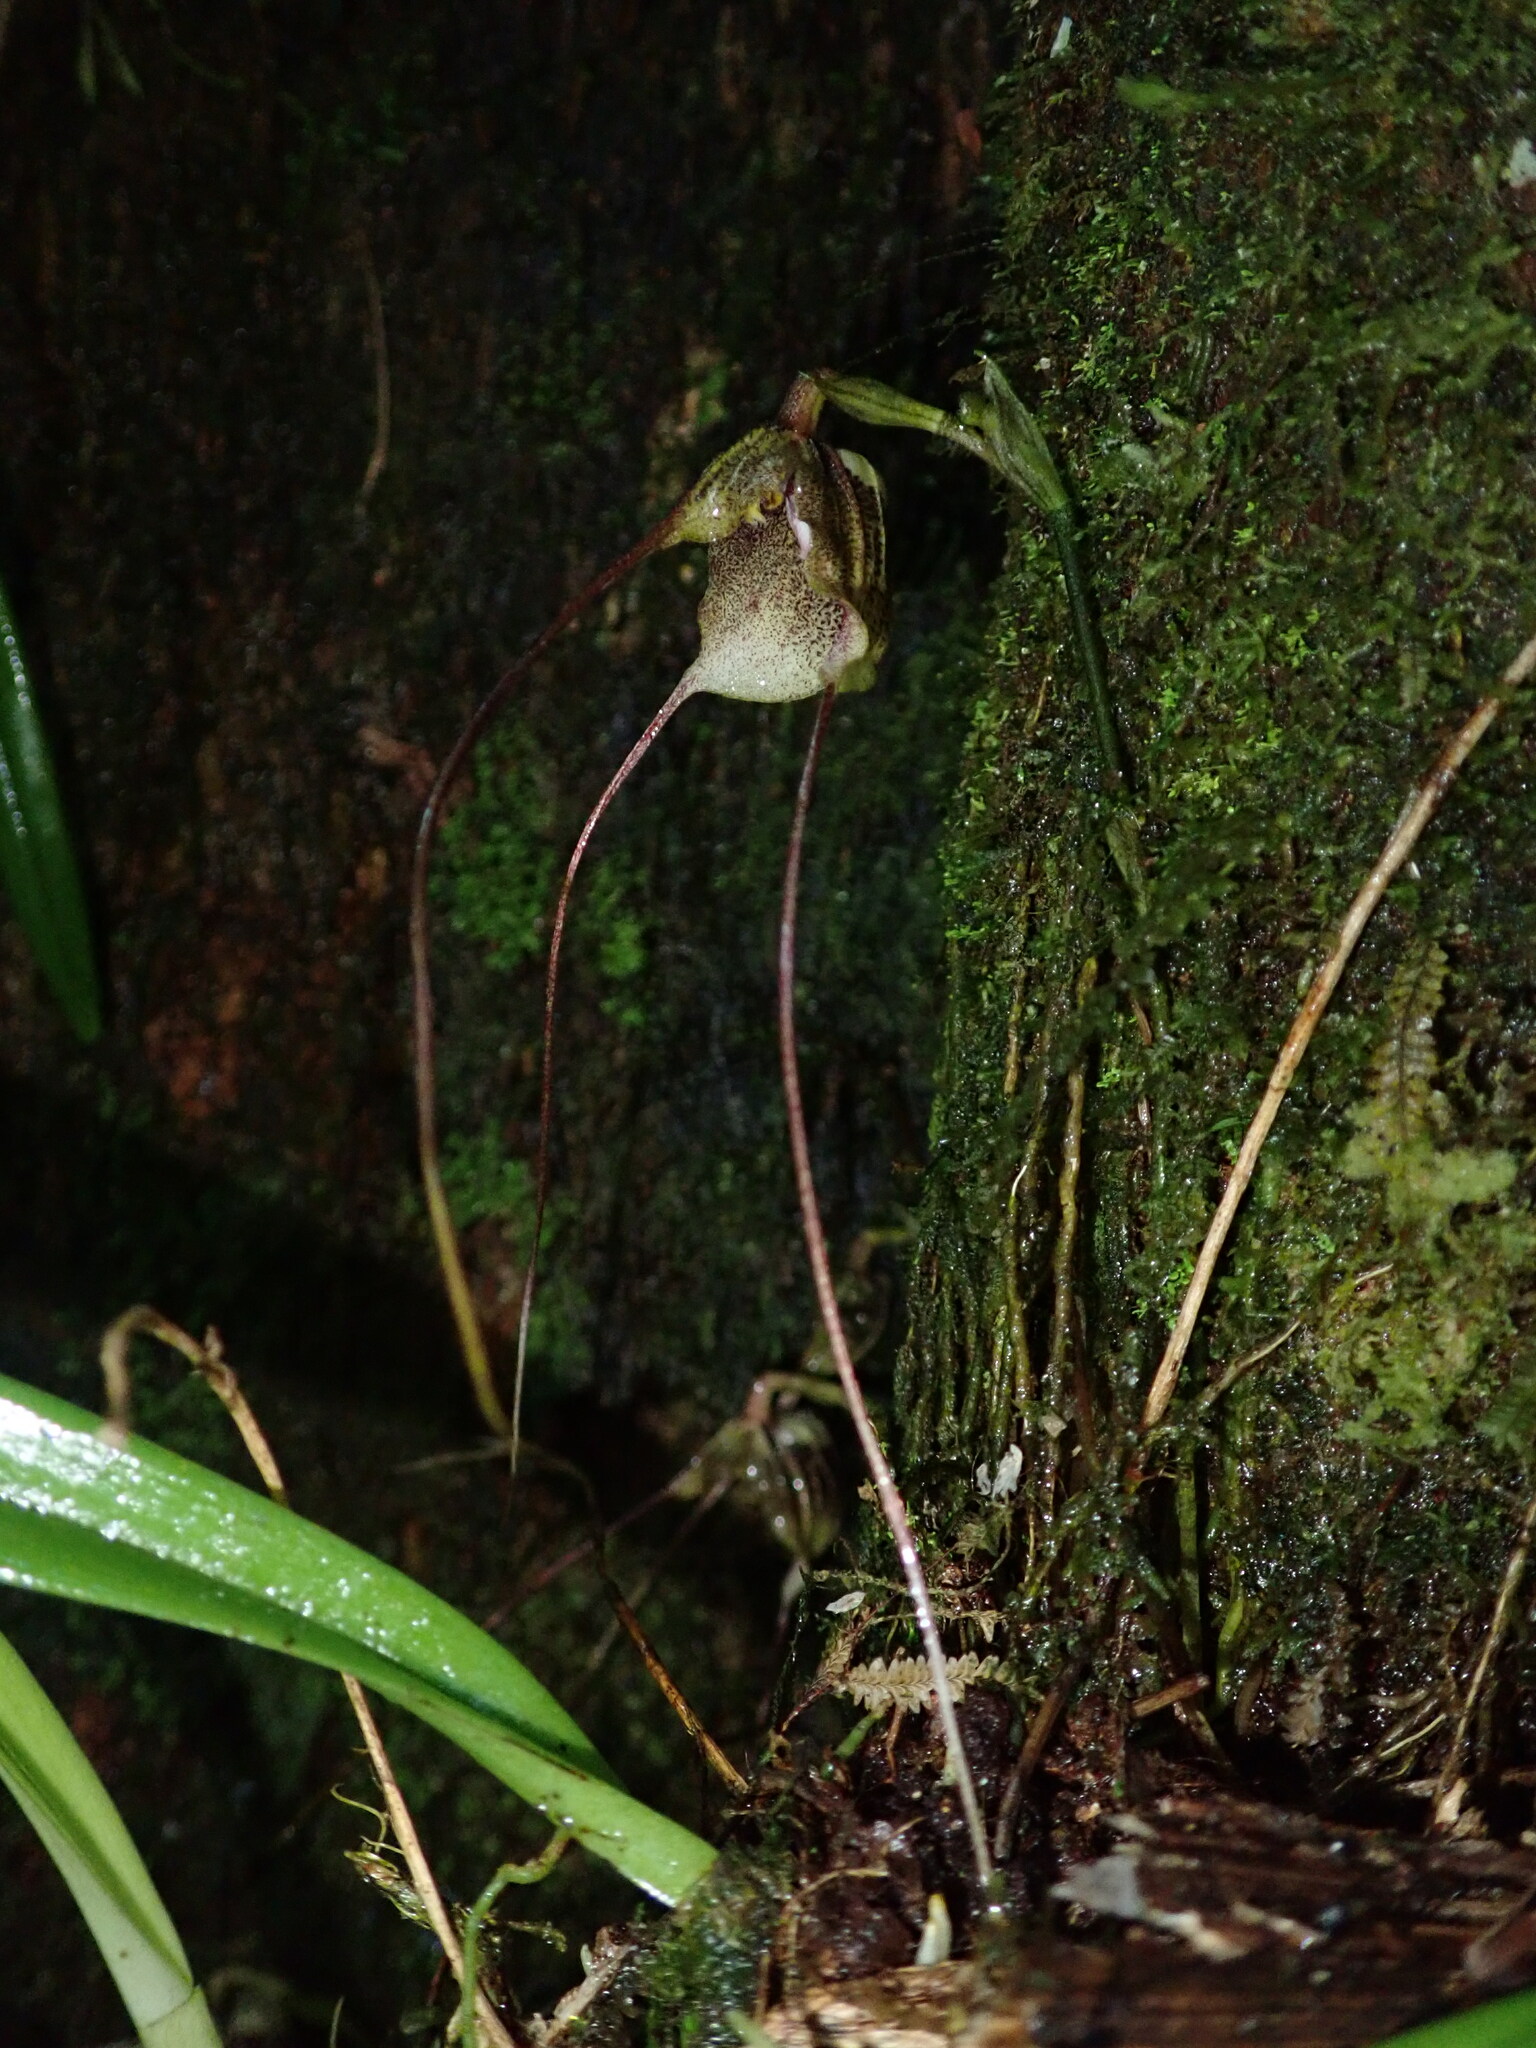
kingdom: Plantae
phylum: Tracheophyta
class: Liliopsida
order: Asparagales
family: Orchidaceae
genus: Dracula
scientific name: Dracula exasperata
